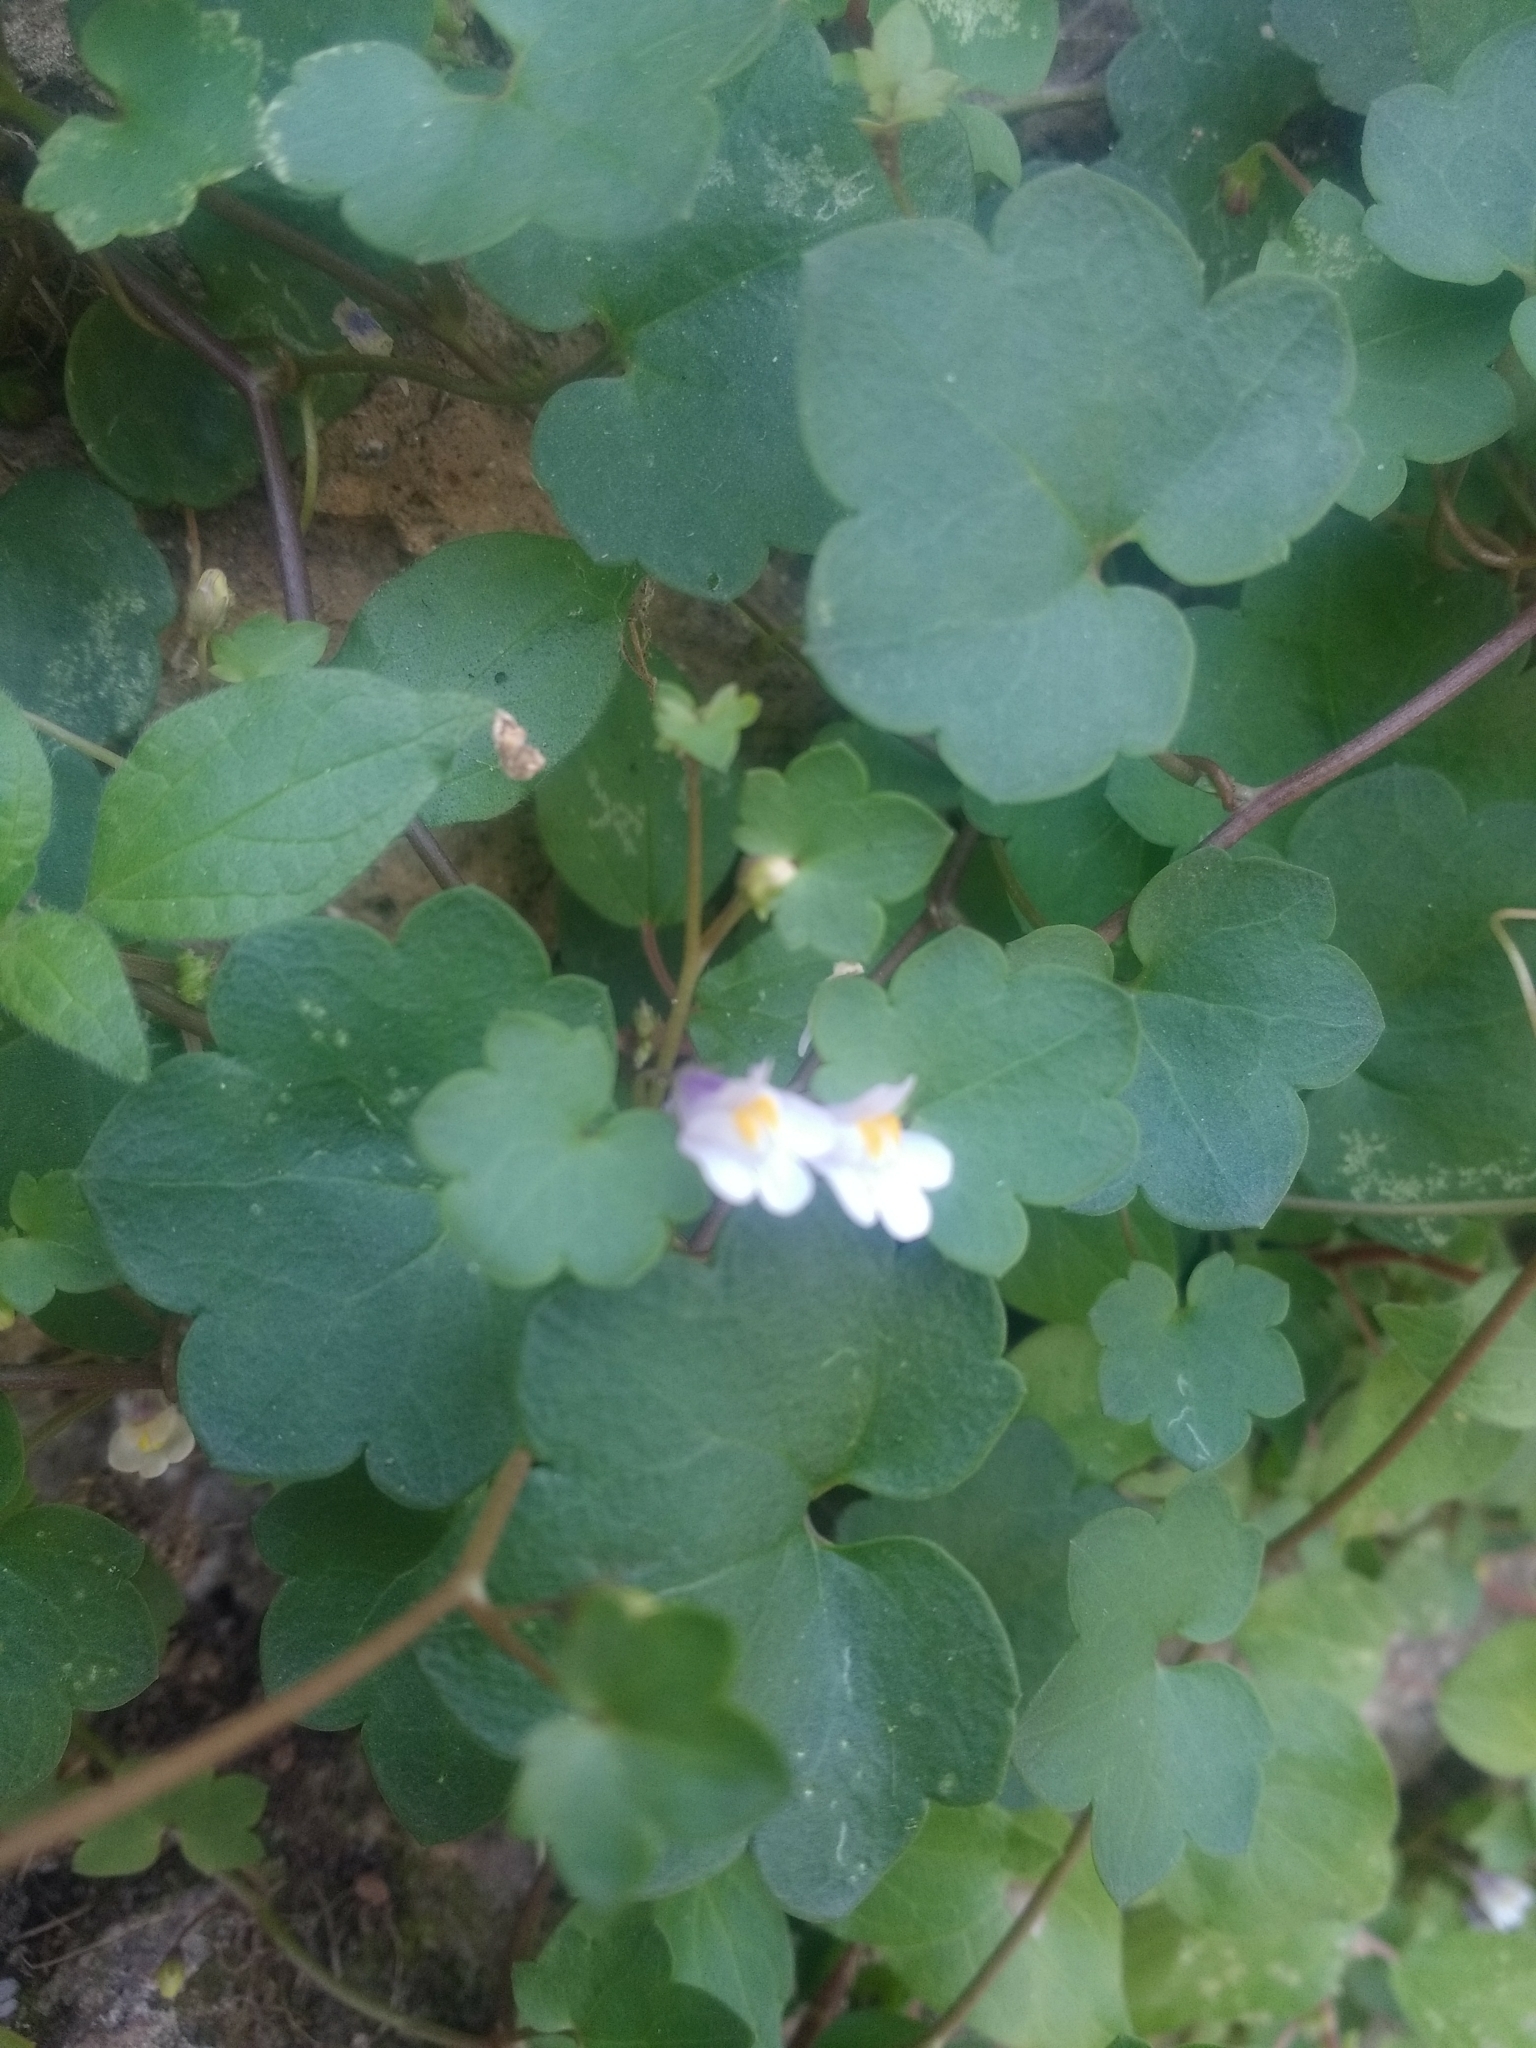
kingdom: Plantae
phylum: Tracheophyta
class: Magnoliopsida
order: Lamiales
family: Plantaginaceae
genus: Cymbalaria
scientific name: Cymbalaria muralis
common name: Ivy-leaved toadflax
